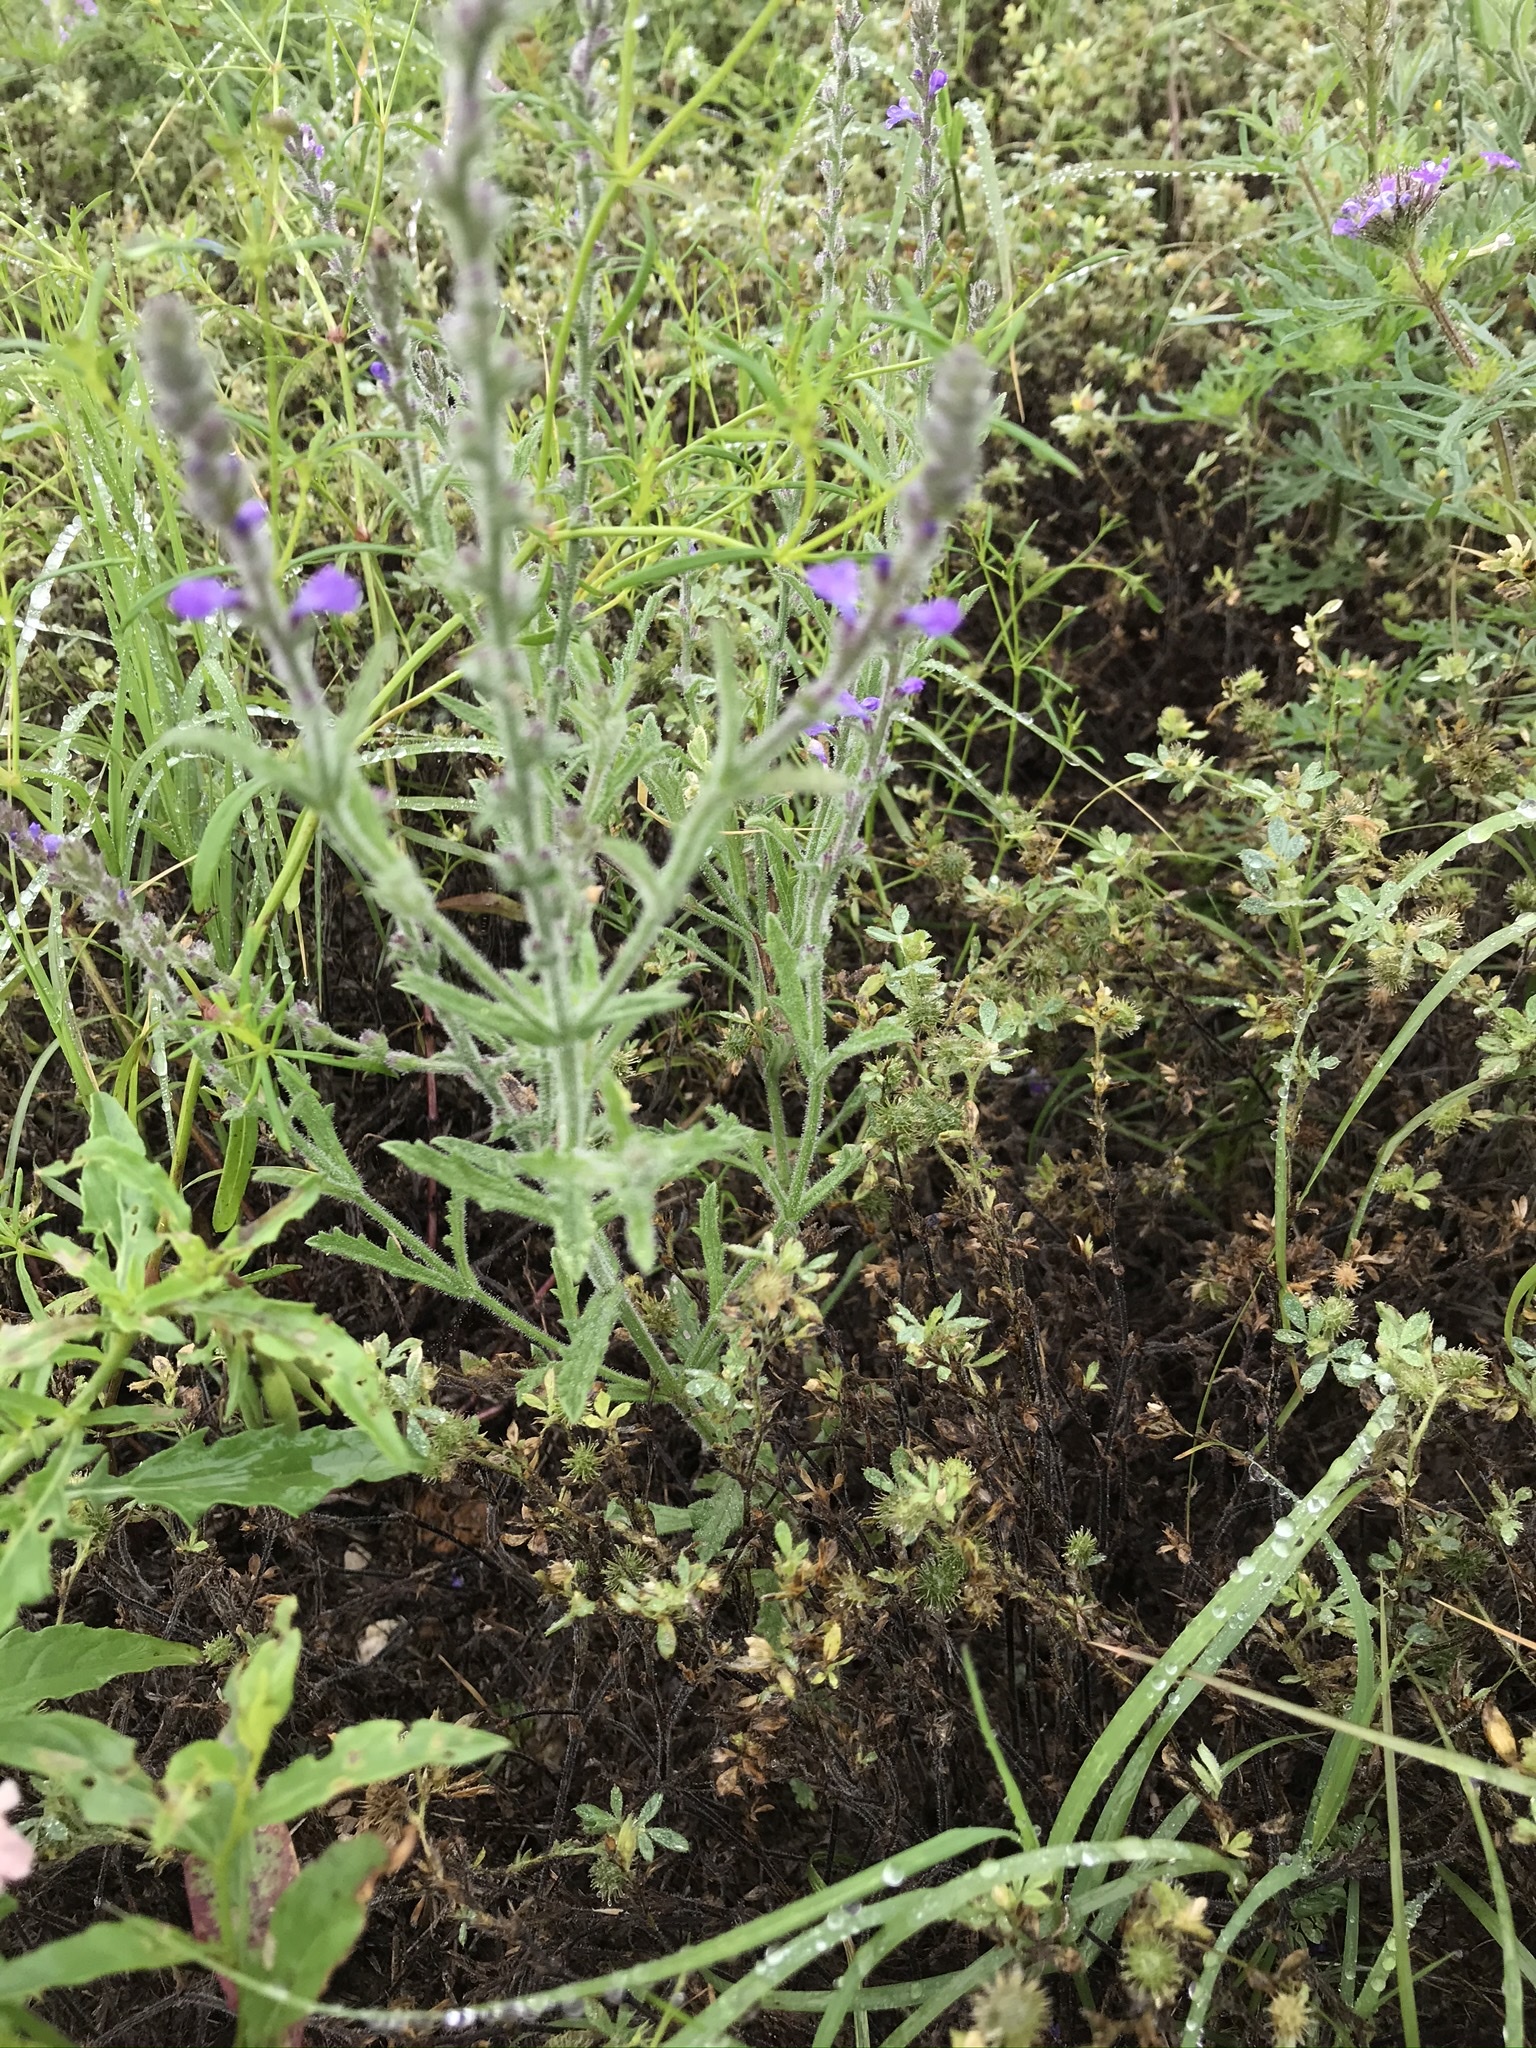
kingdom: Plantae
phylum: Tracheophyta
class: Magnoliopsida
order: Lamiales
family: Verbenaceae
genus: Verbena
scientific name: Verbena canescens
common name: Gray vervain
